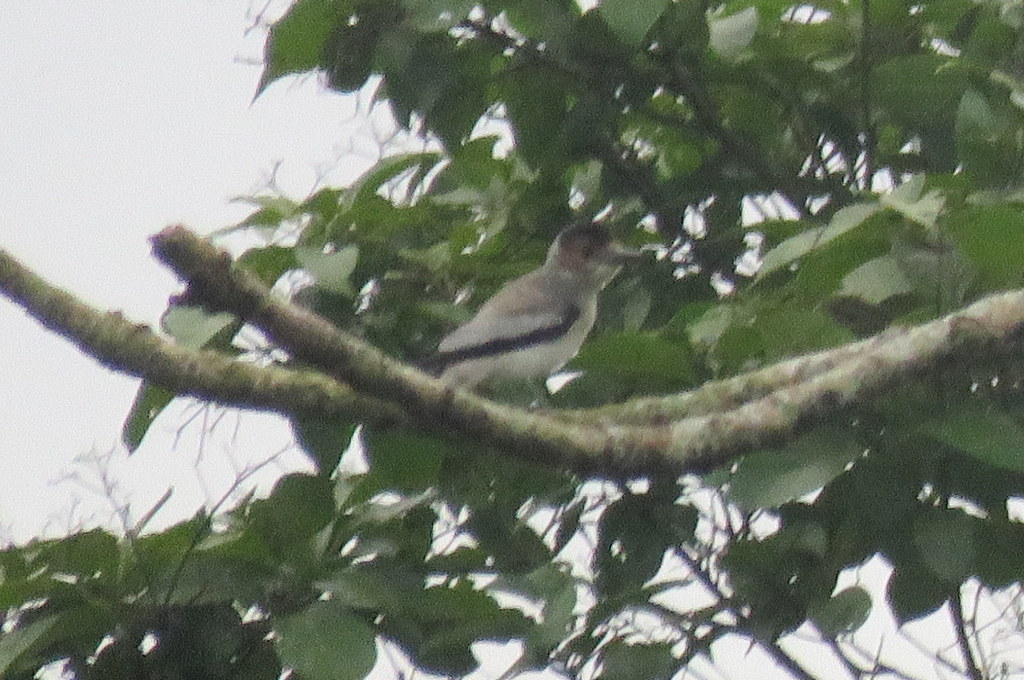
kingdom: Animalia
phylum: Chordata
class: Aves
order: Passeriformes
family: Cotingidae
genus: Tityra
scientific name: Tityra inquisitor
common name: Black-crowned tityra
